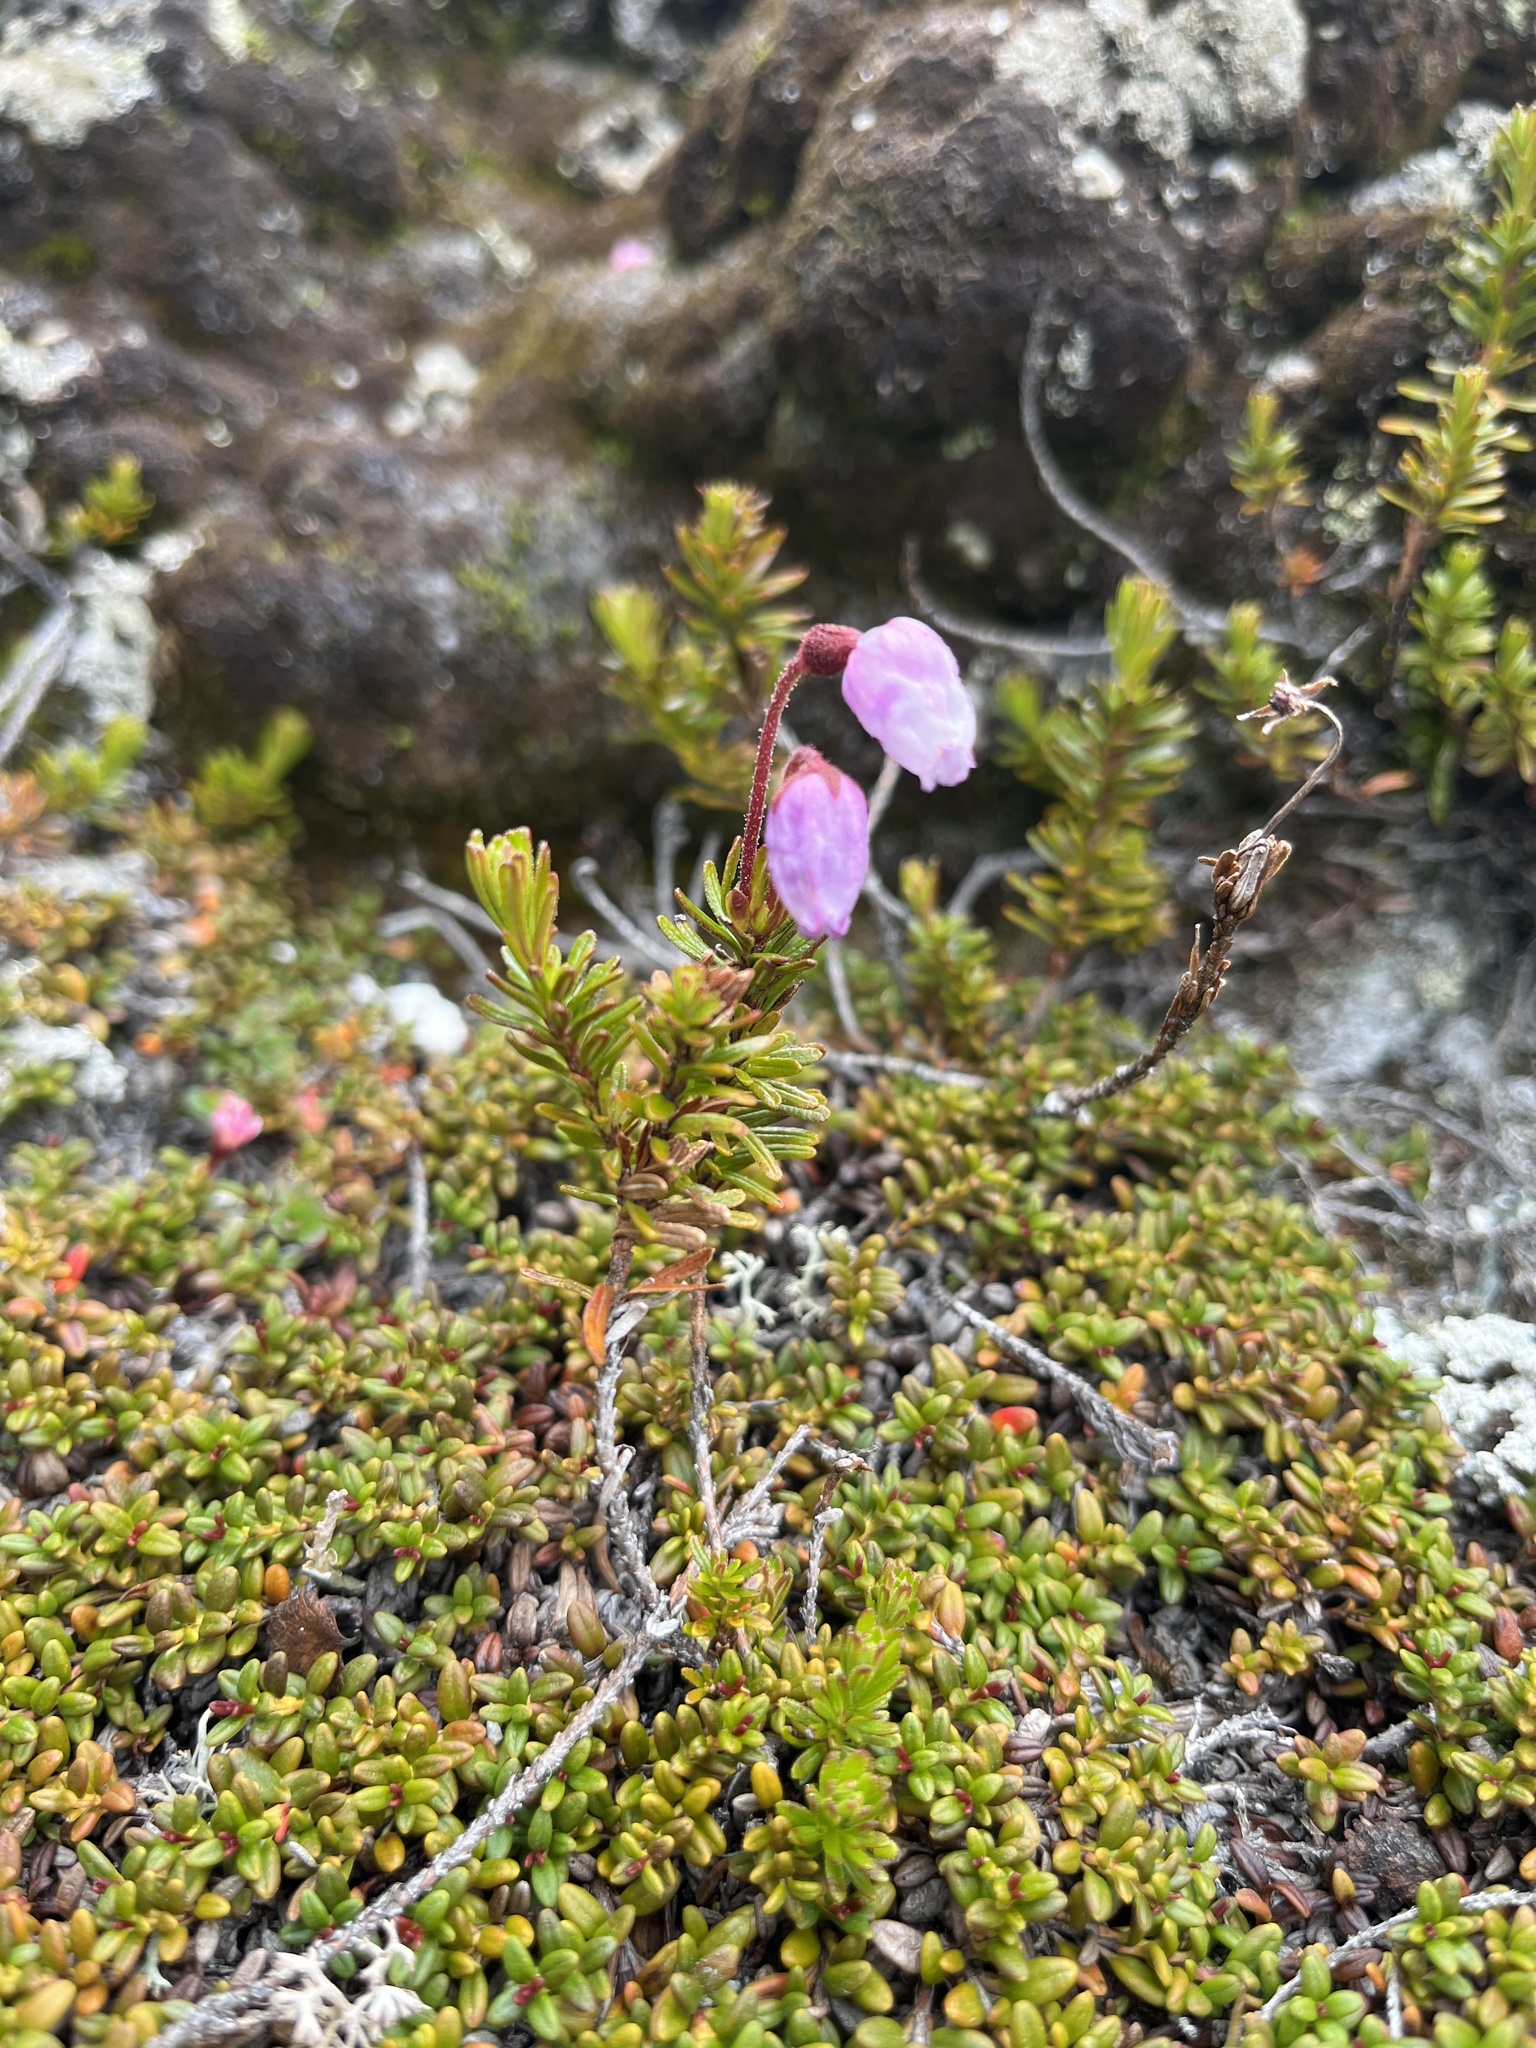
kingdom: Plantae
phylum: Tracheophyta
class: Magnoliopsida
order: Ericales
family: Ericaceae
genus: Phyllodoce
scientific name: Phyllodoce caerulea
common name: Blue heath
